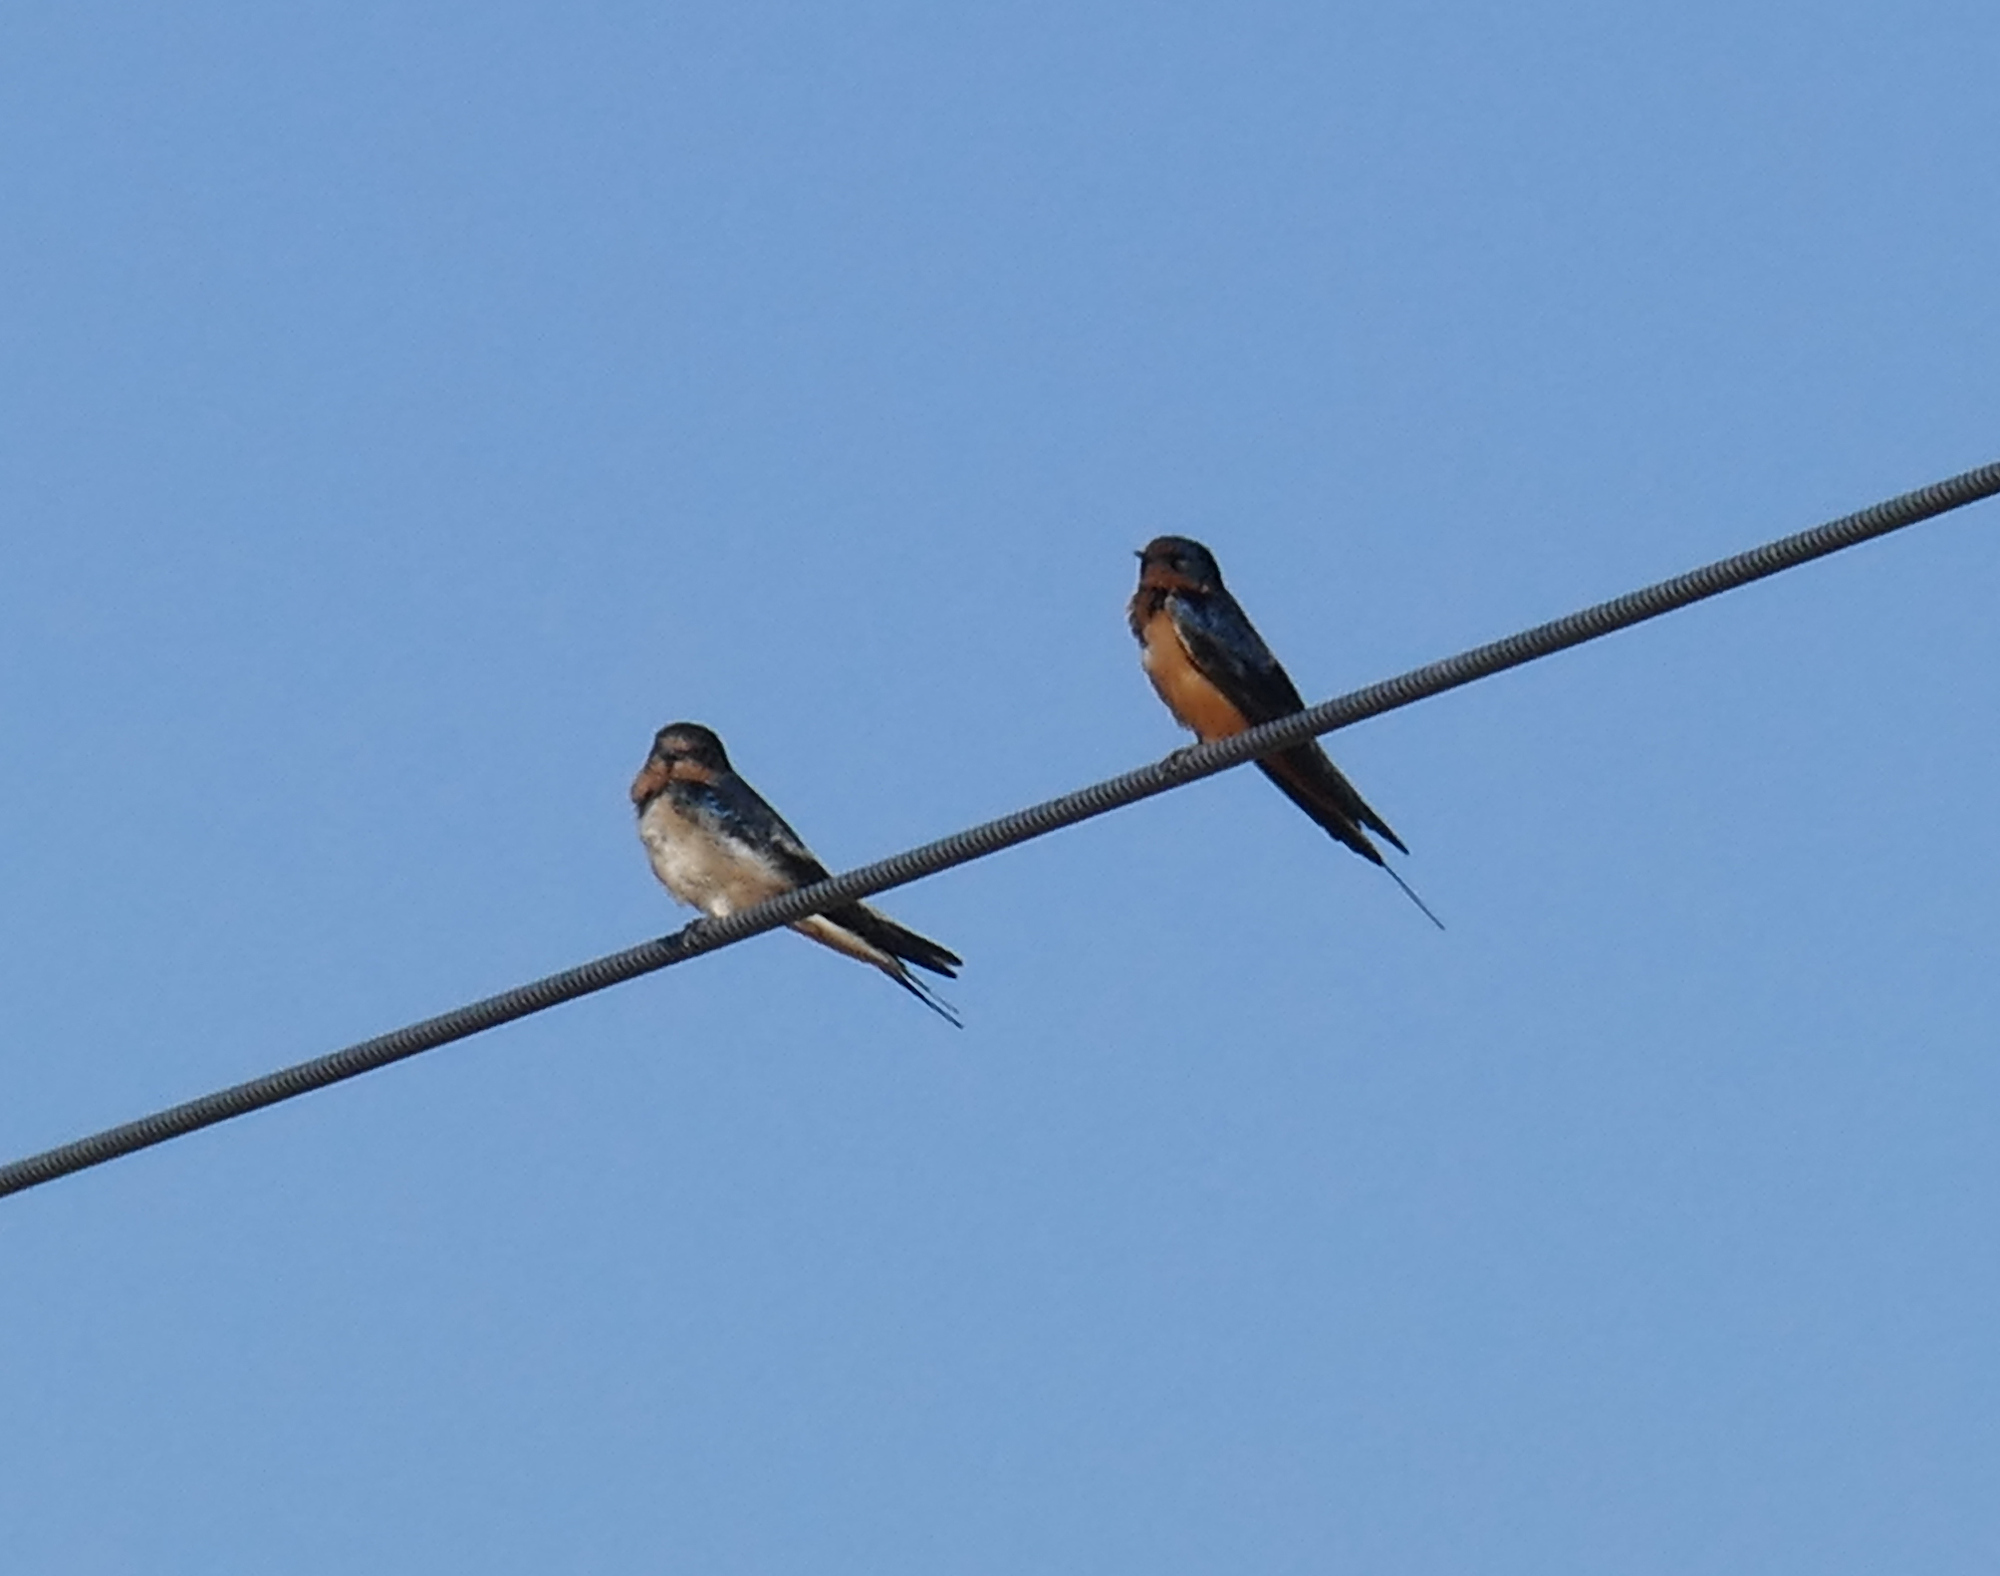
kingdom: Animalia
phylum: Chordata
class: Aves
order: Passeriformes
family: Hirundinidae
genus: Hirundo
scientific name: Hirundo rustica
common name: Barn swallow
